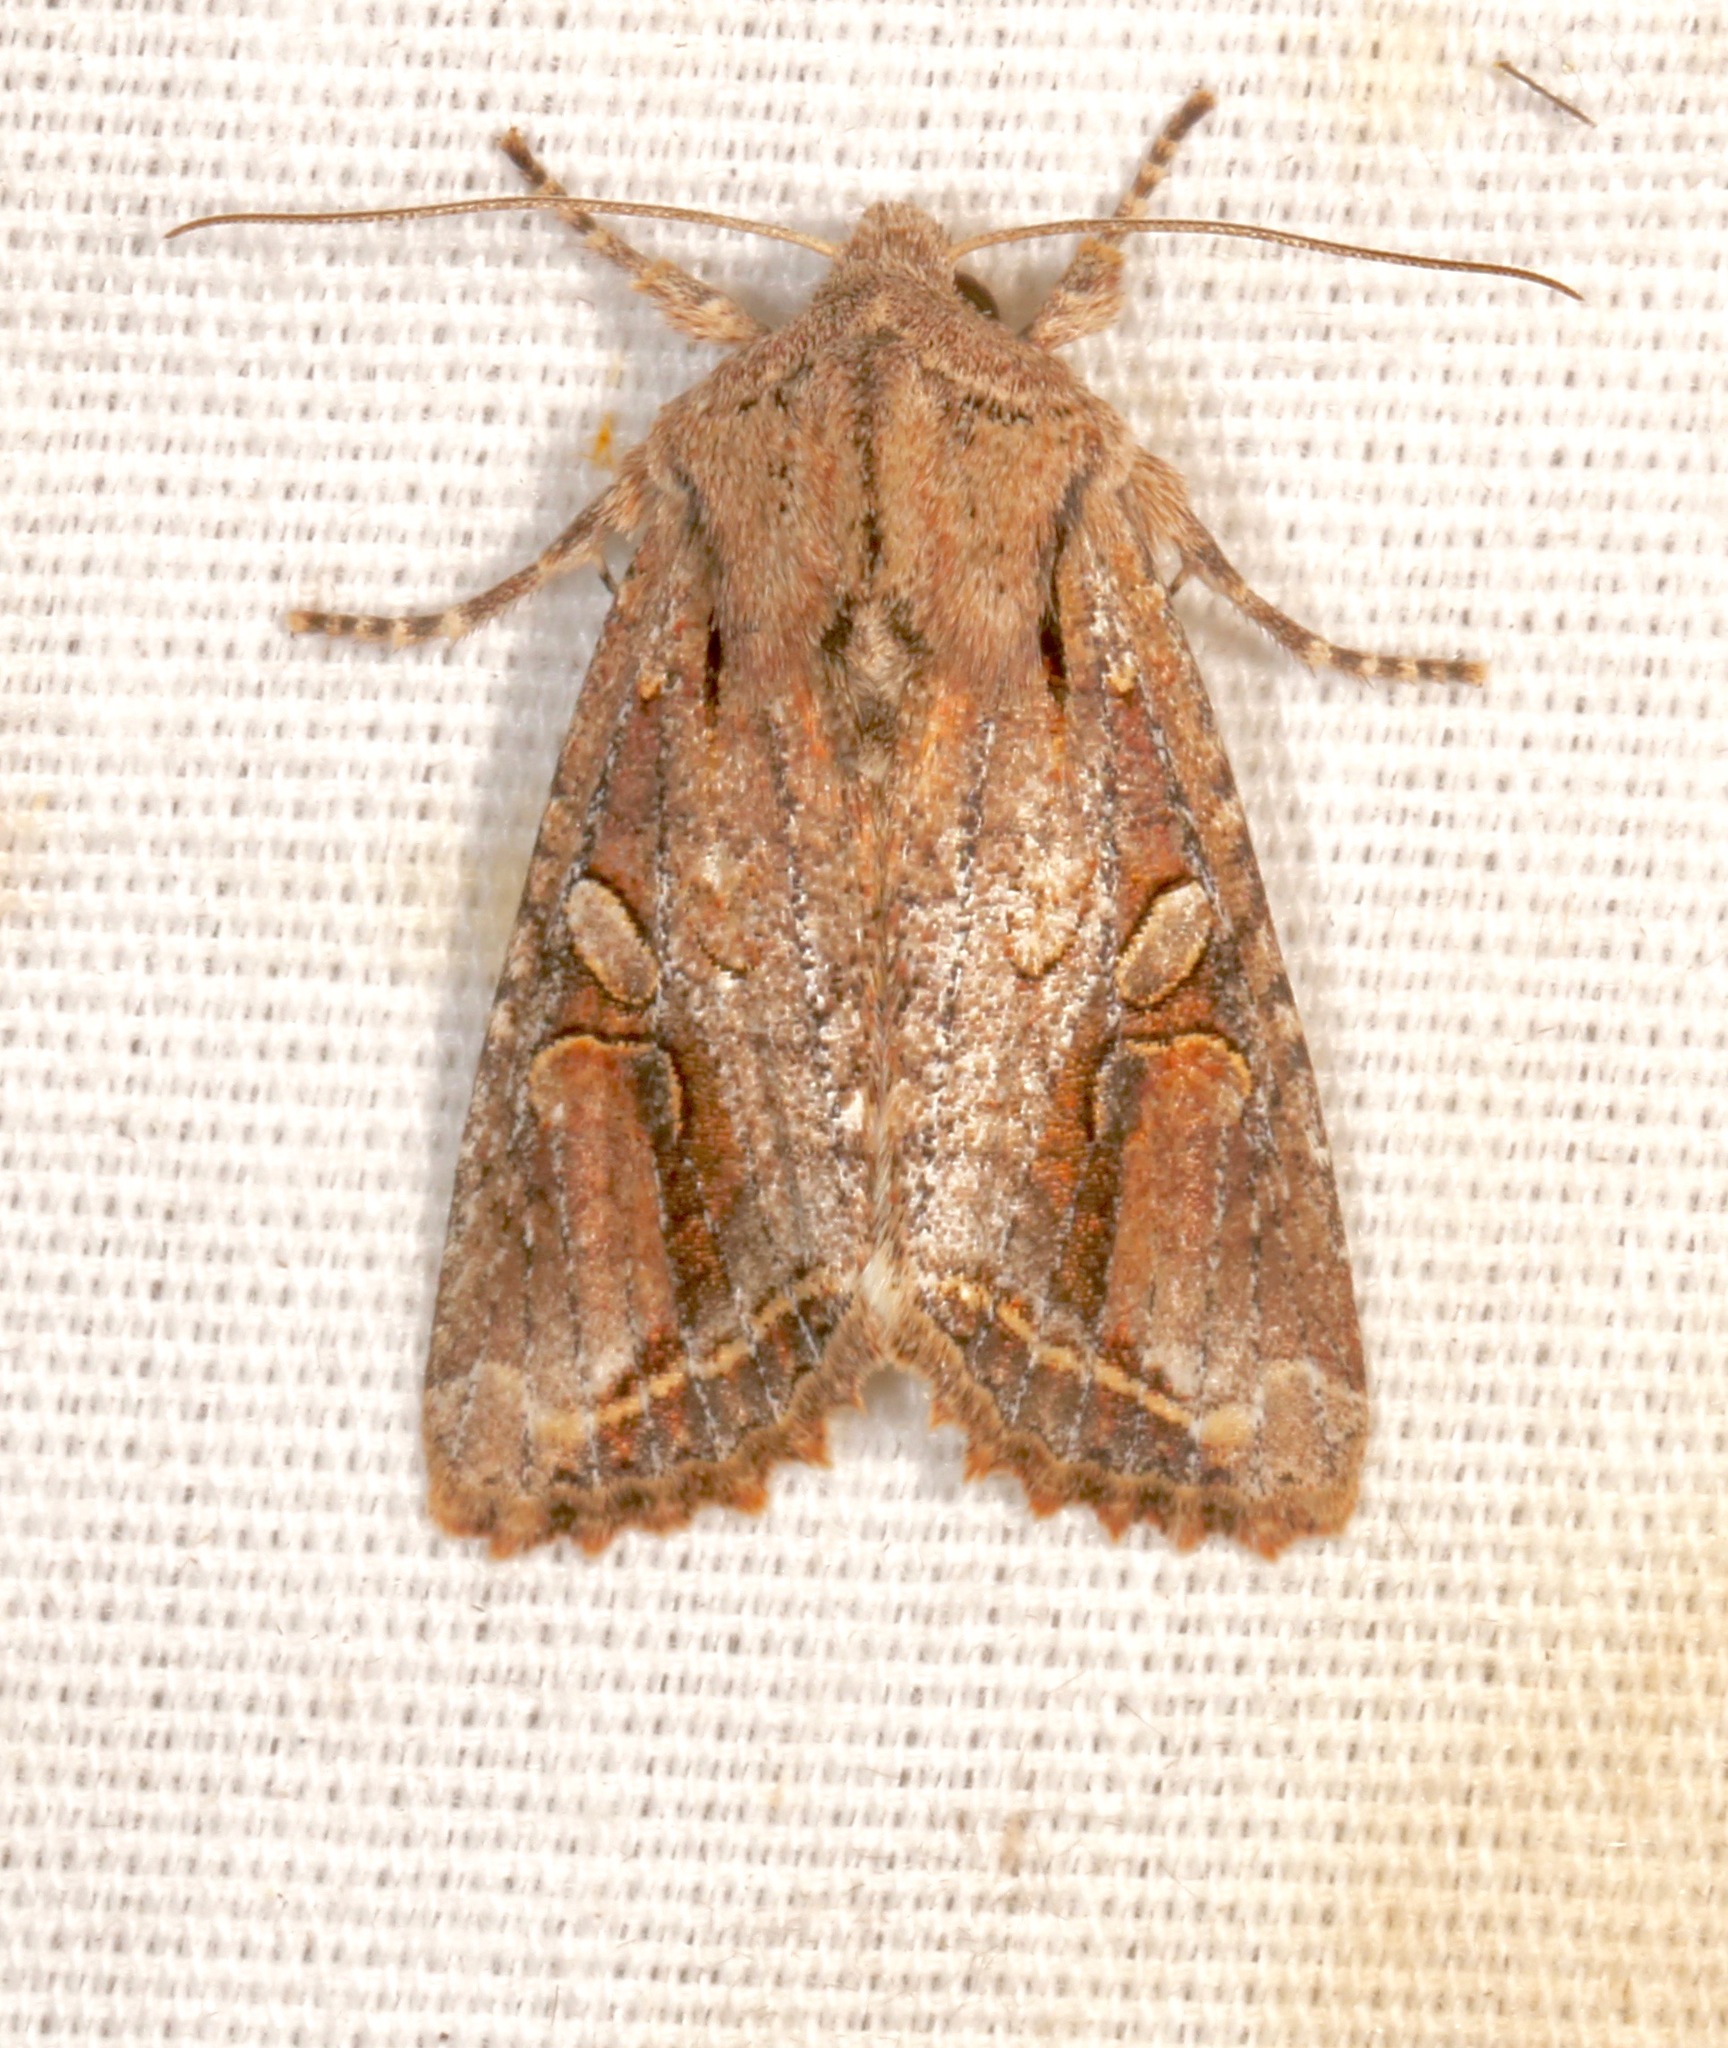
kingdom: Animalia
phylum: Arthropoda
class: Insecta
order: Lepidoptera
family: Noctuidae
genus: Egira
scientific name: Egira rubrica
